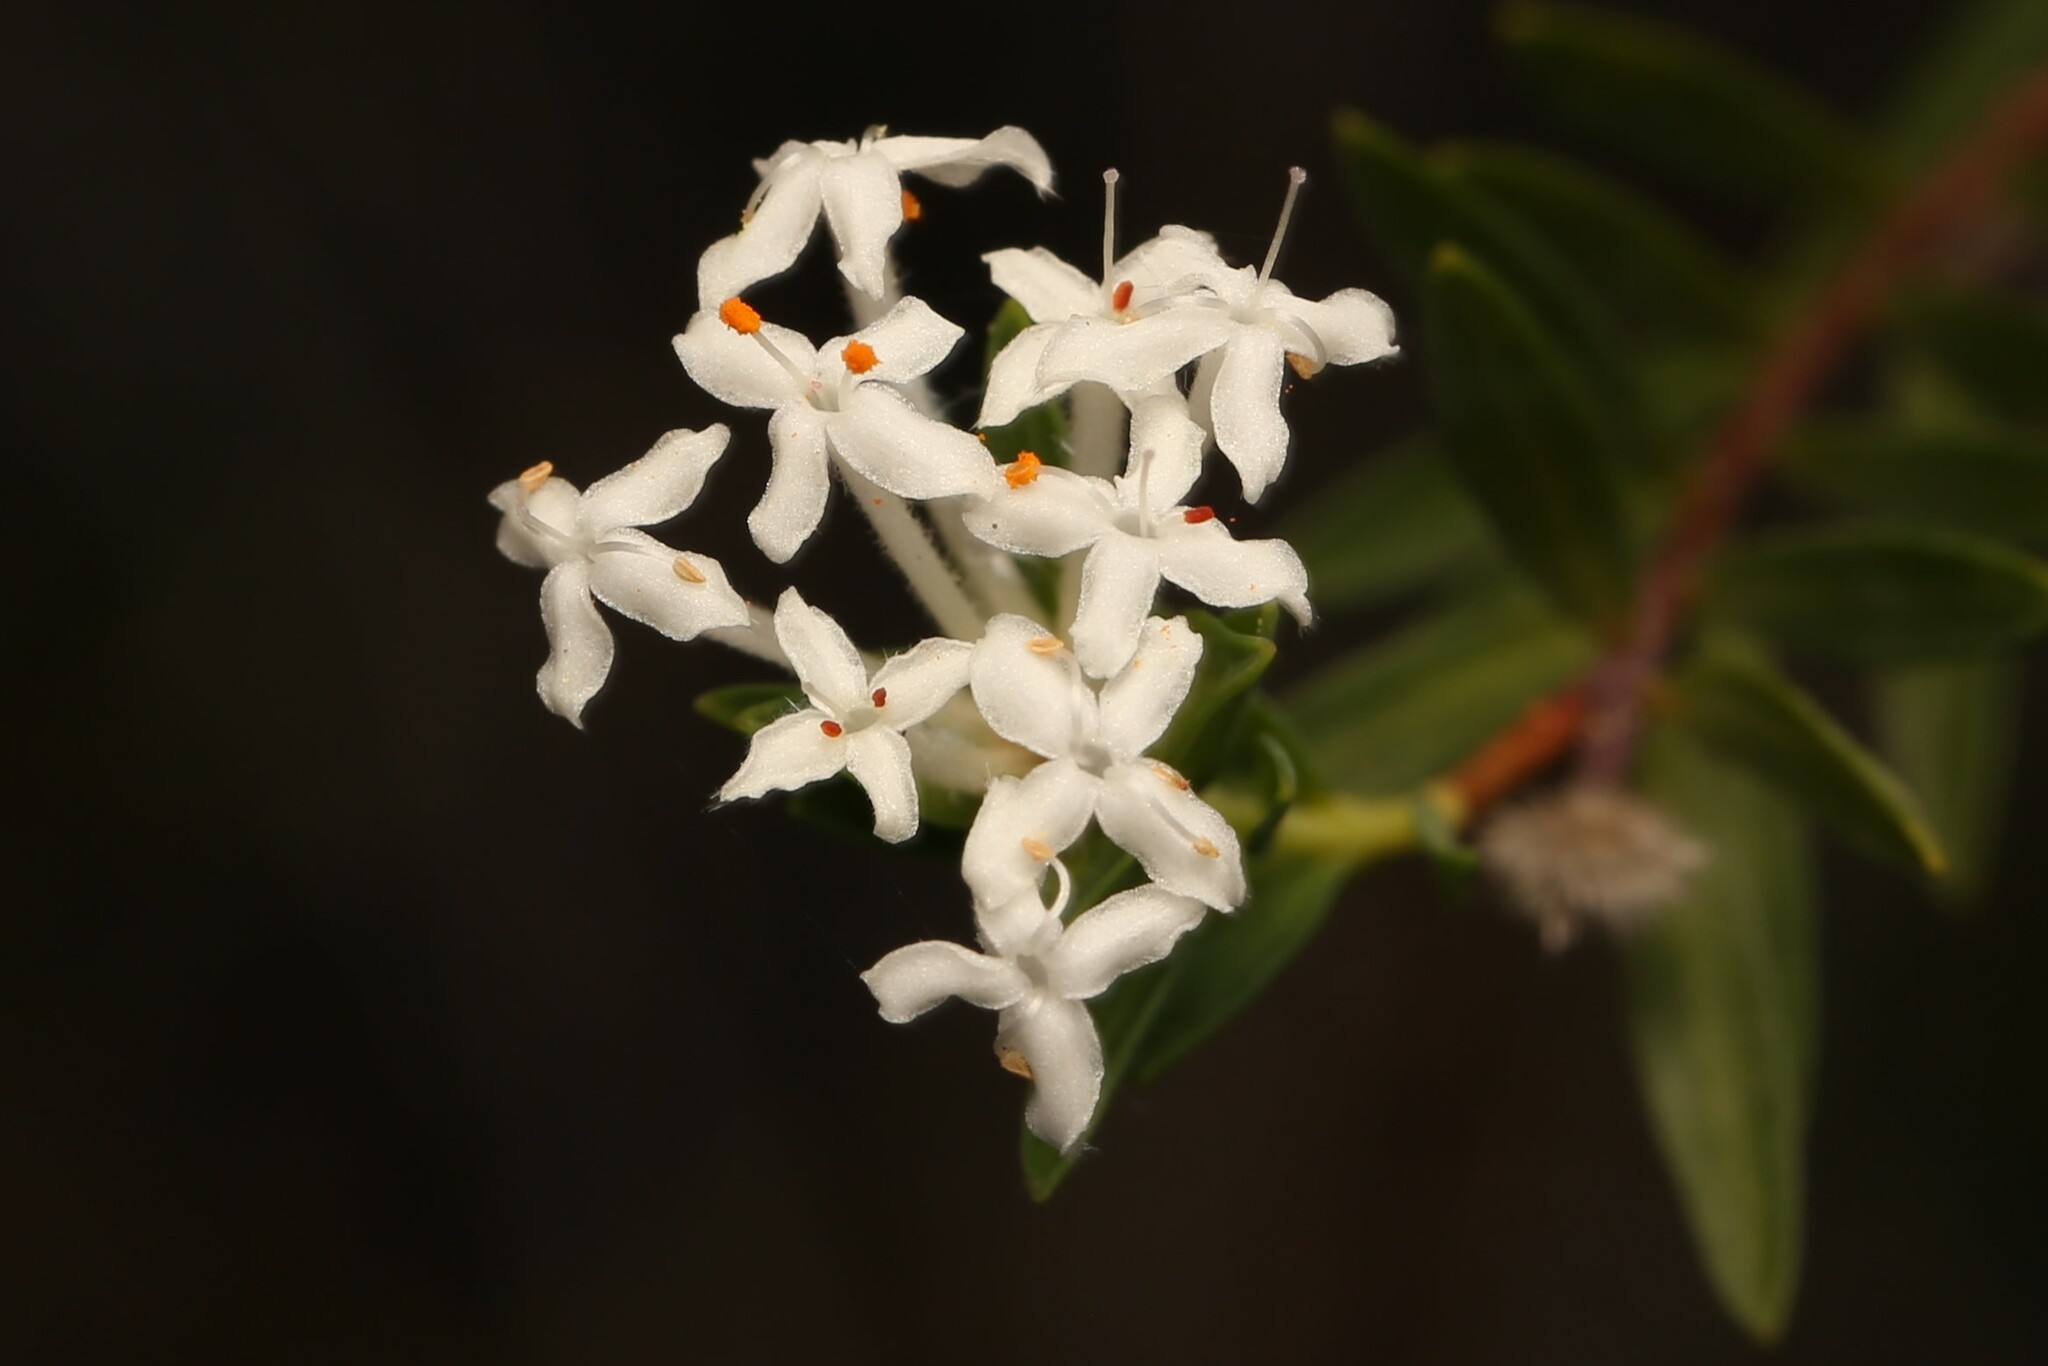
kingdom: Plantae
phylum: Tracheophyta
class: Magnoliopsida
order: Malvales
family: Thymelaeaceae
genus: Pimelea
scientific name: Pimelea linifolia
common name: Queen-of-the-bush
